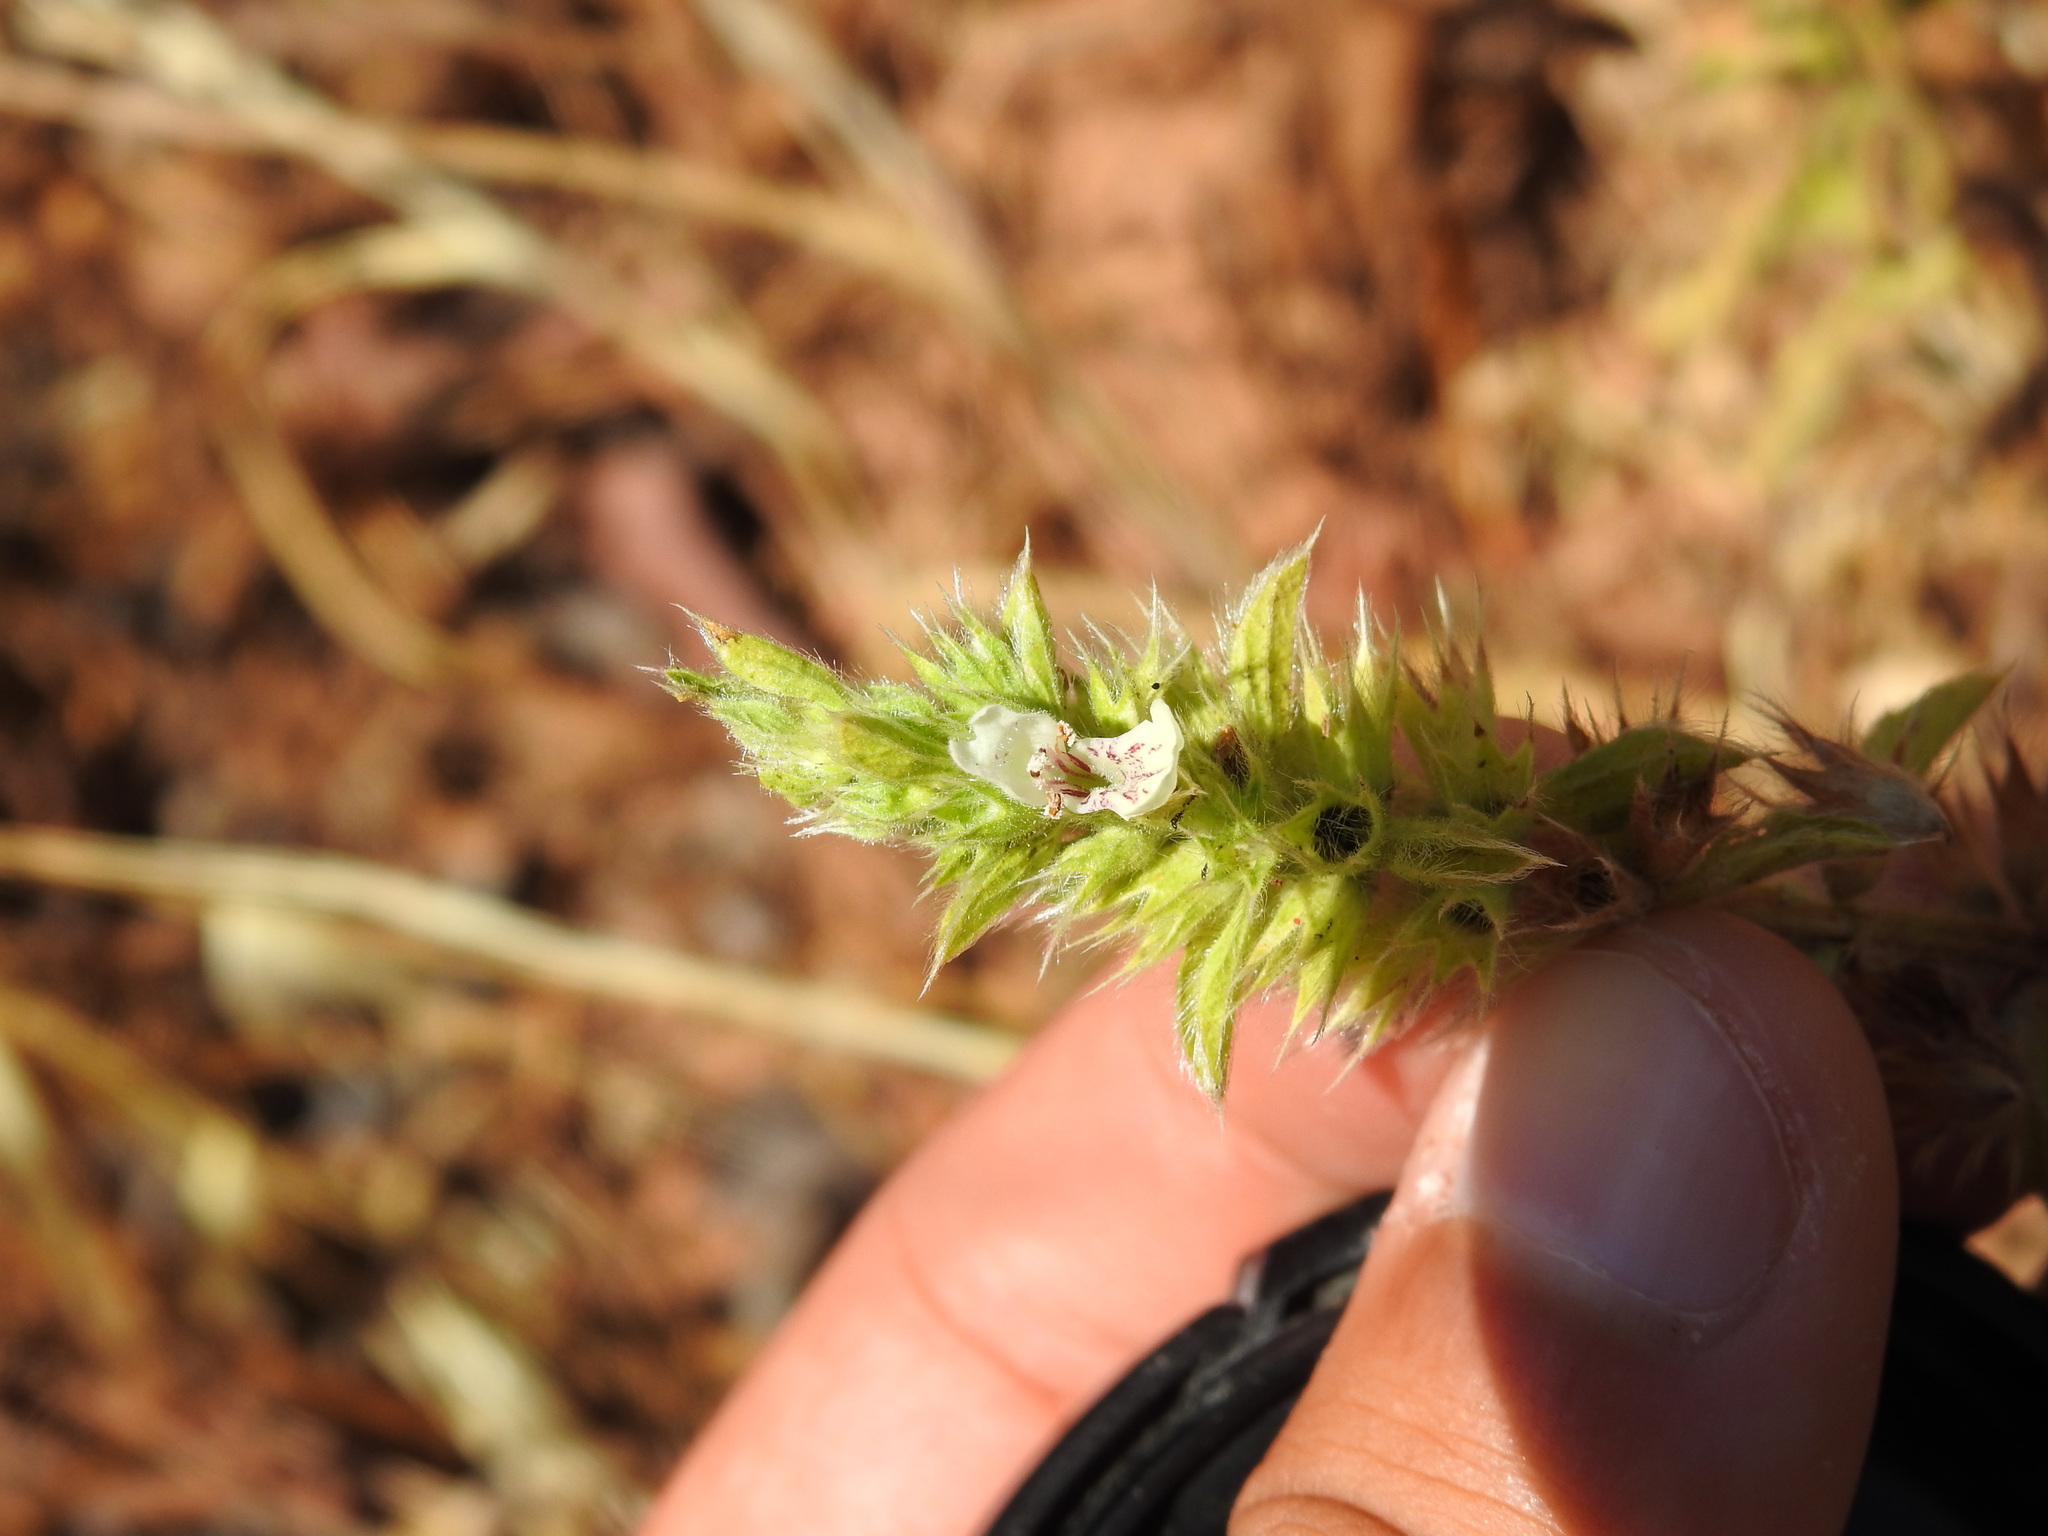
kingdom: Plantae
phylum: Tracheophyta
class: Magnoliopsida
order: Lamiales
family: Lamiaceae
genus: Stachys
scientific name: Stachys ocymastrum
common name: Italian hedgenettle
